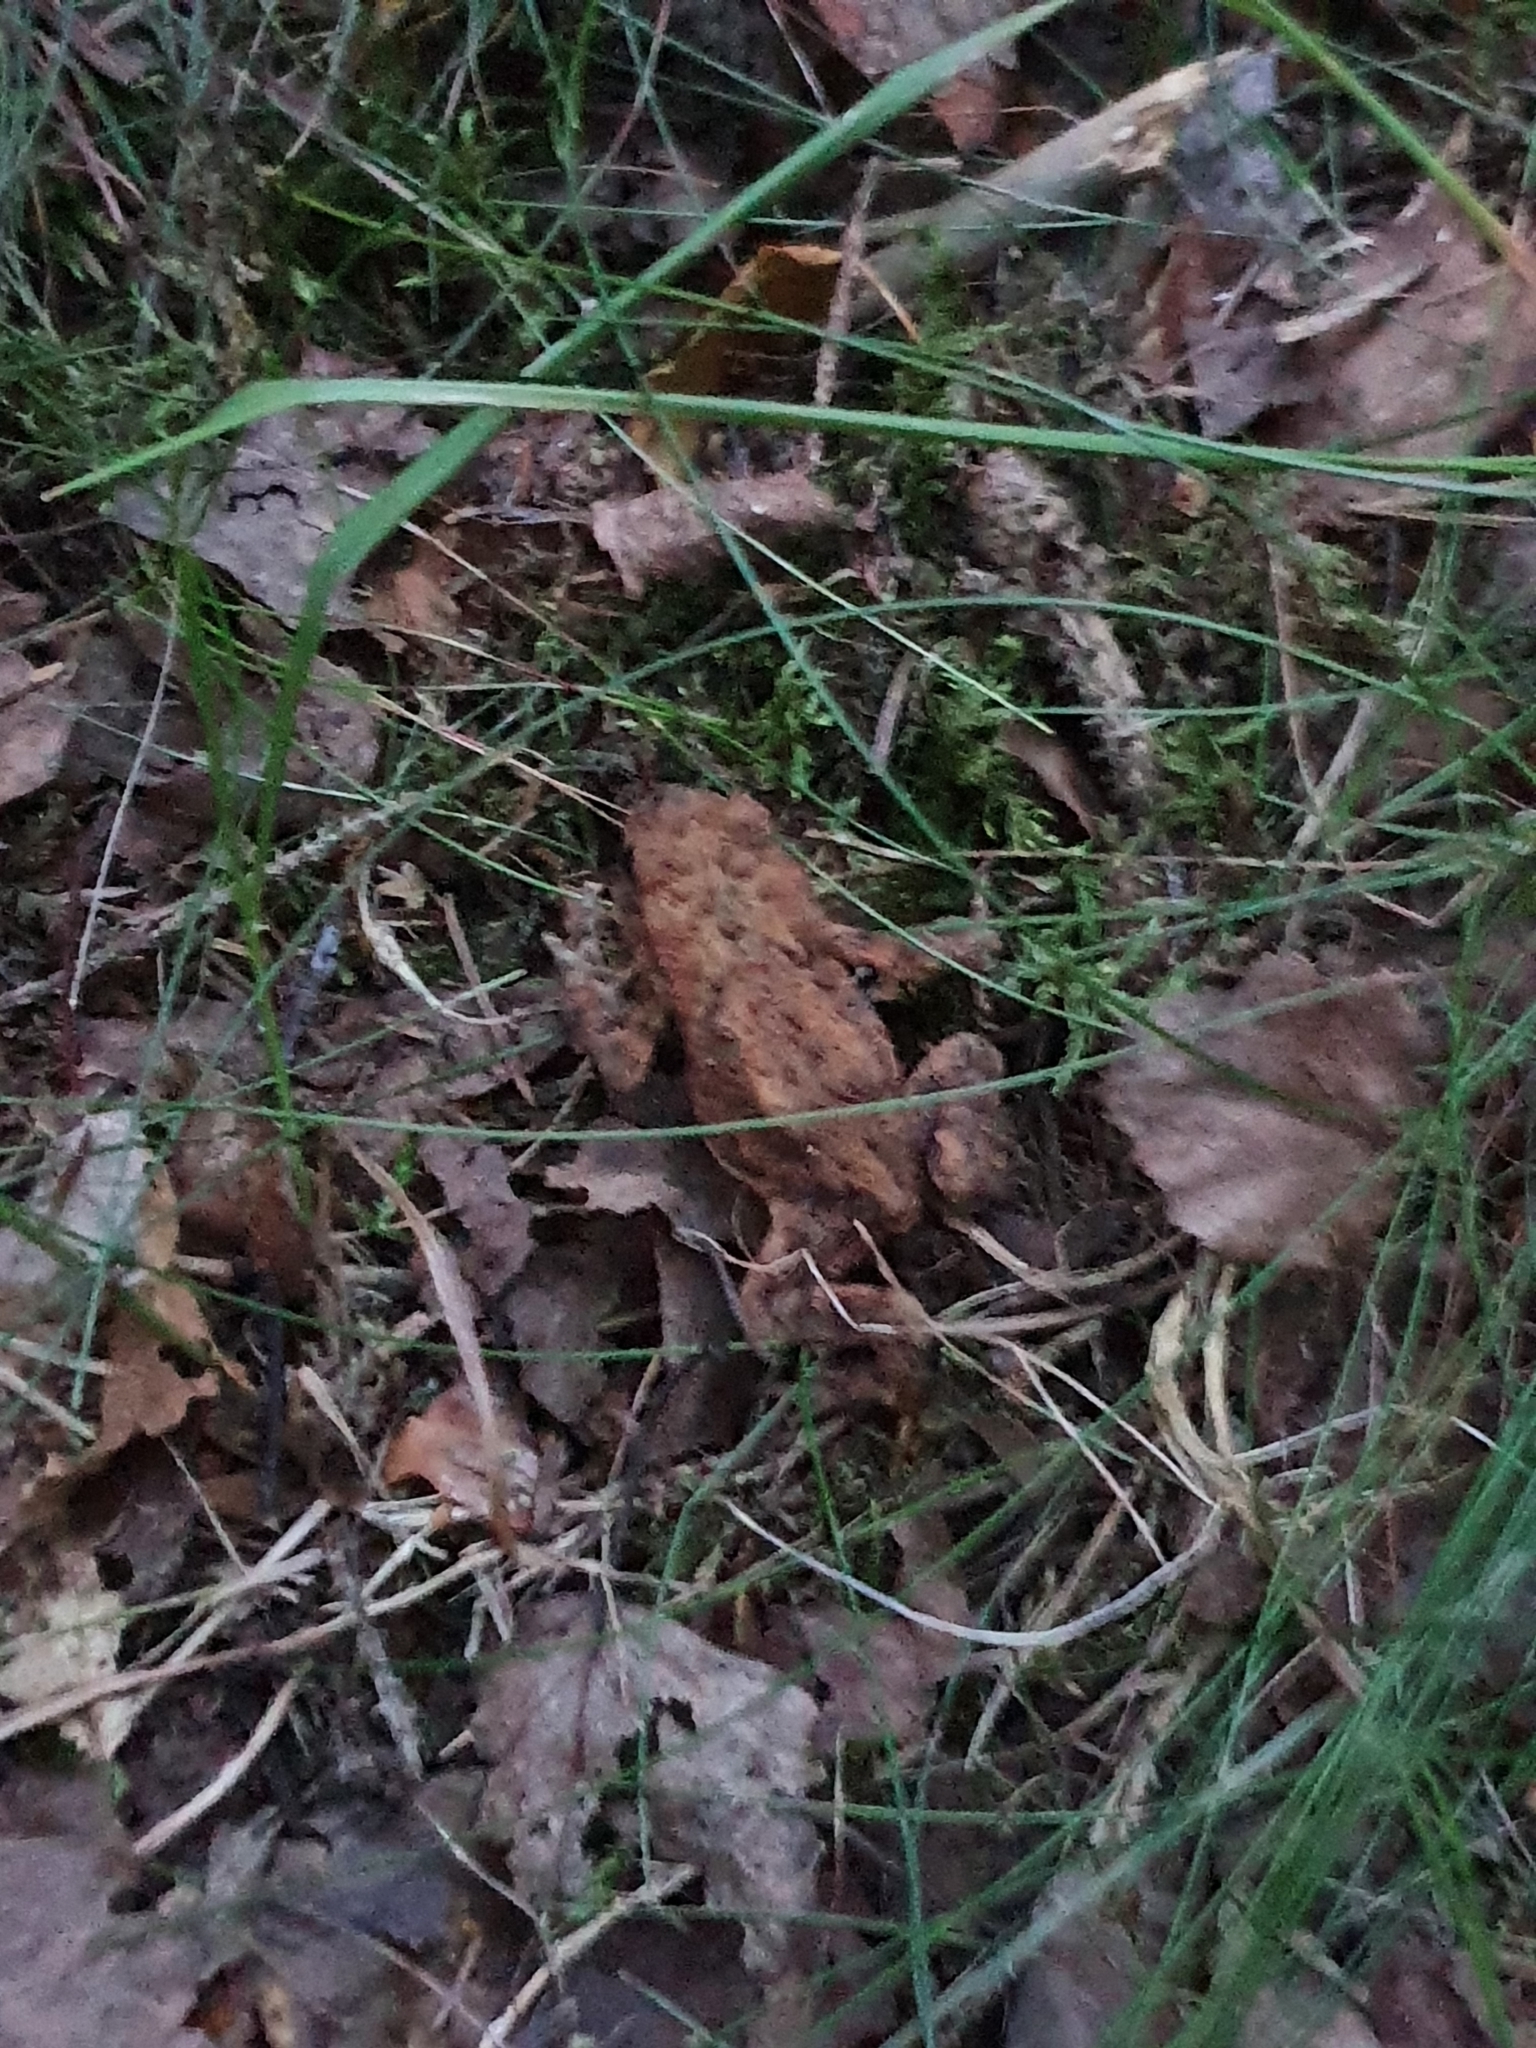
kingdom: Animalia
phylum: Chordata
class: Amphibia
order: Anura
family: Bufonidae
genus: Bufo
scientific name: Bufo bufo
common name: Common toad
